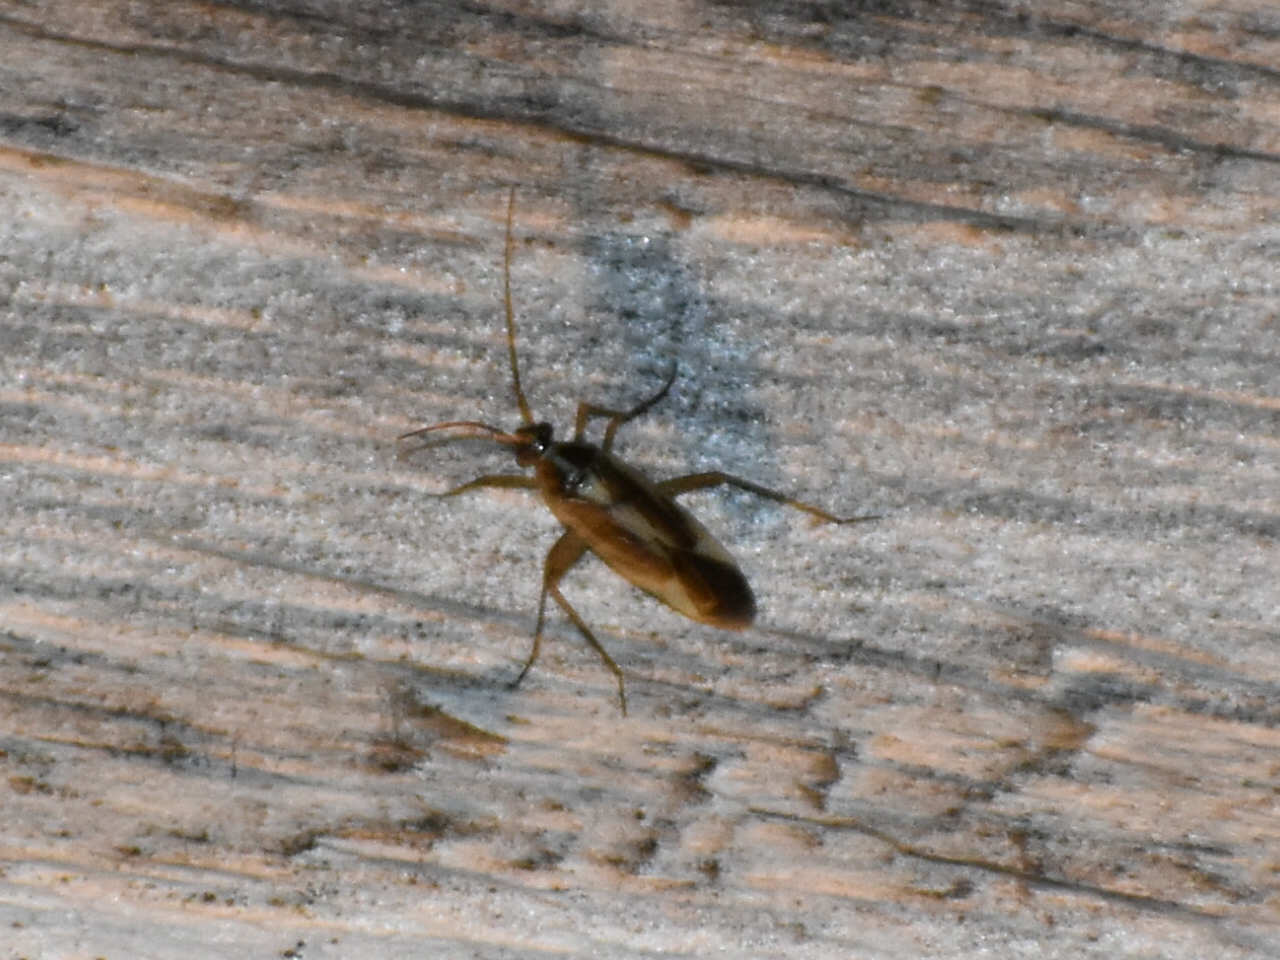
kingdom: Animalia
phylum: Arthropoda
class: Insecta
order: Hemiptera
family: Miridae
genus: Stenotus
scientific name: Stenotus binotatus
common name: Plant bug
